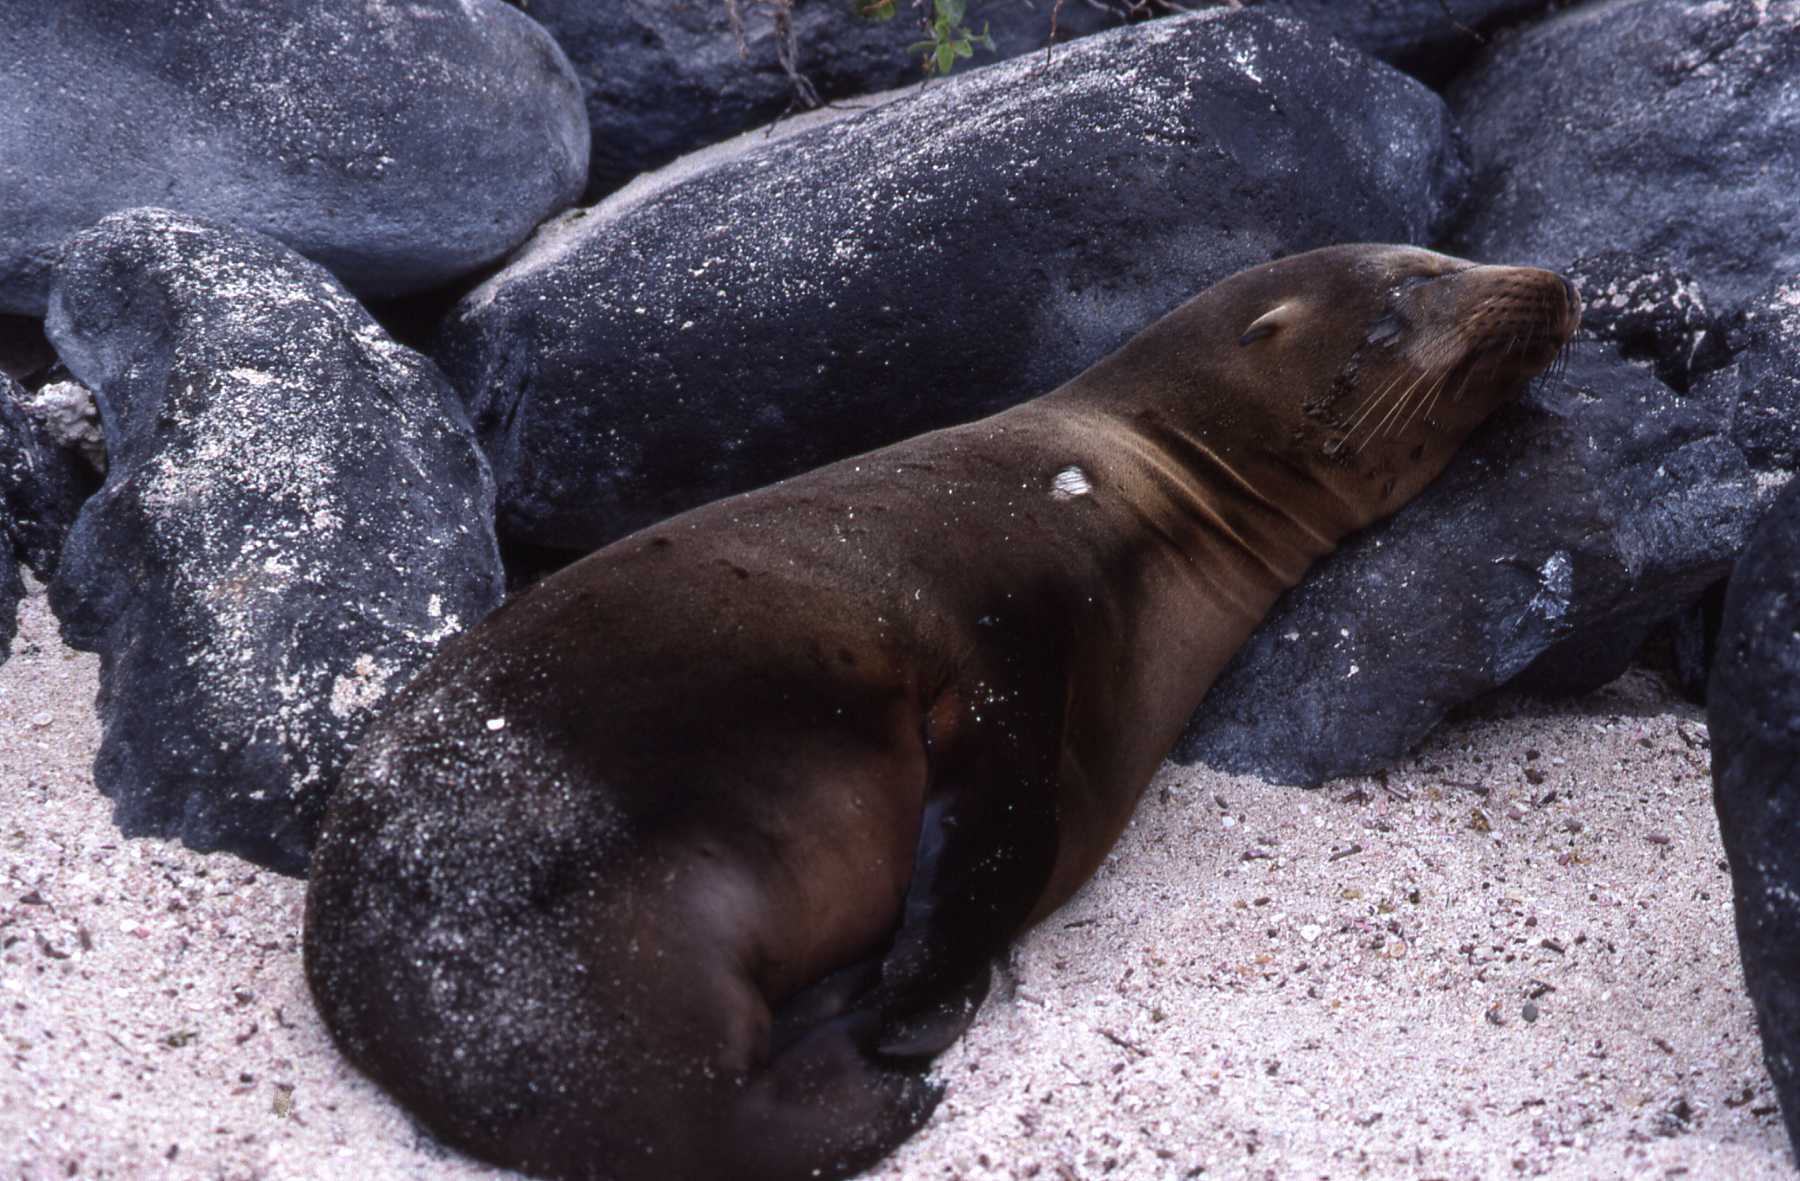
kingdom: Animalia
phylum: Chordata
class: Mammalia
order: Carnivora
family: Otariidae
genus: Zalophus
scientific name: Zalophus wollebaeki
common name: Galapagos sea lion
